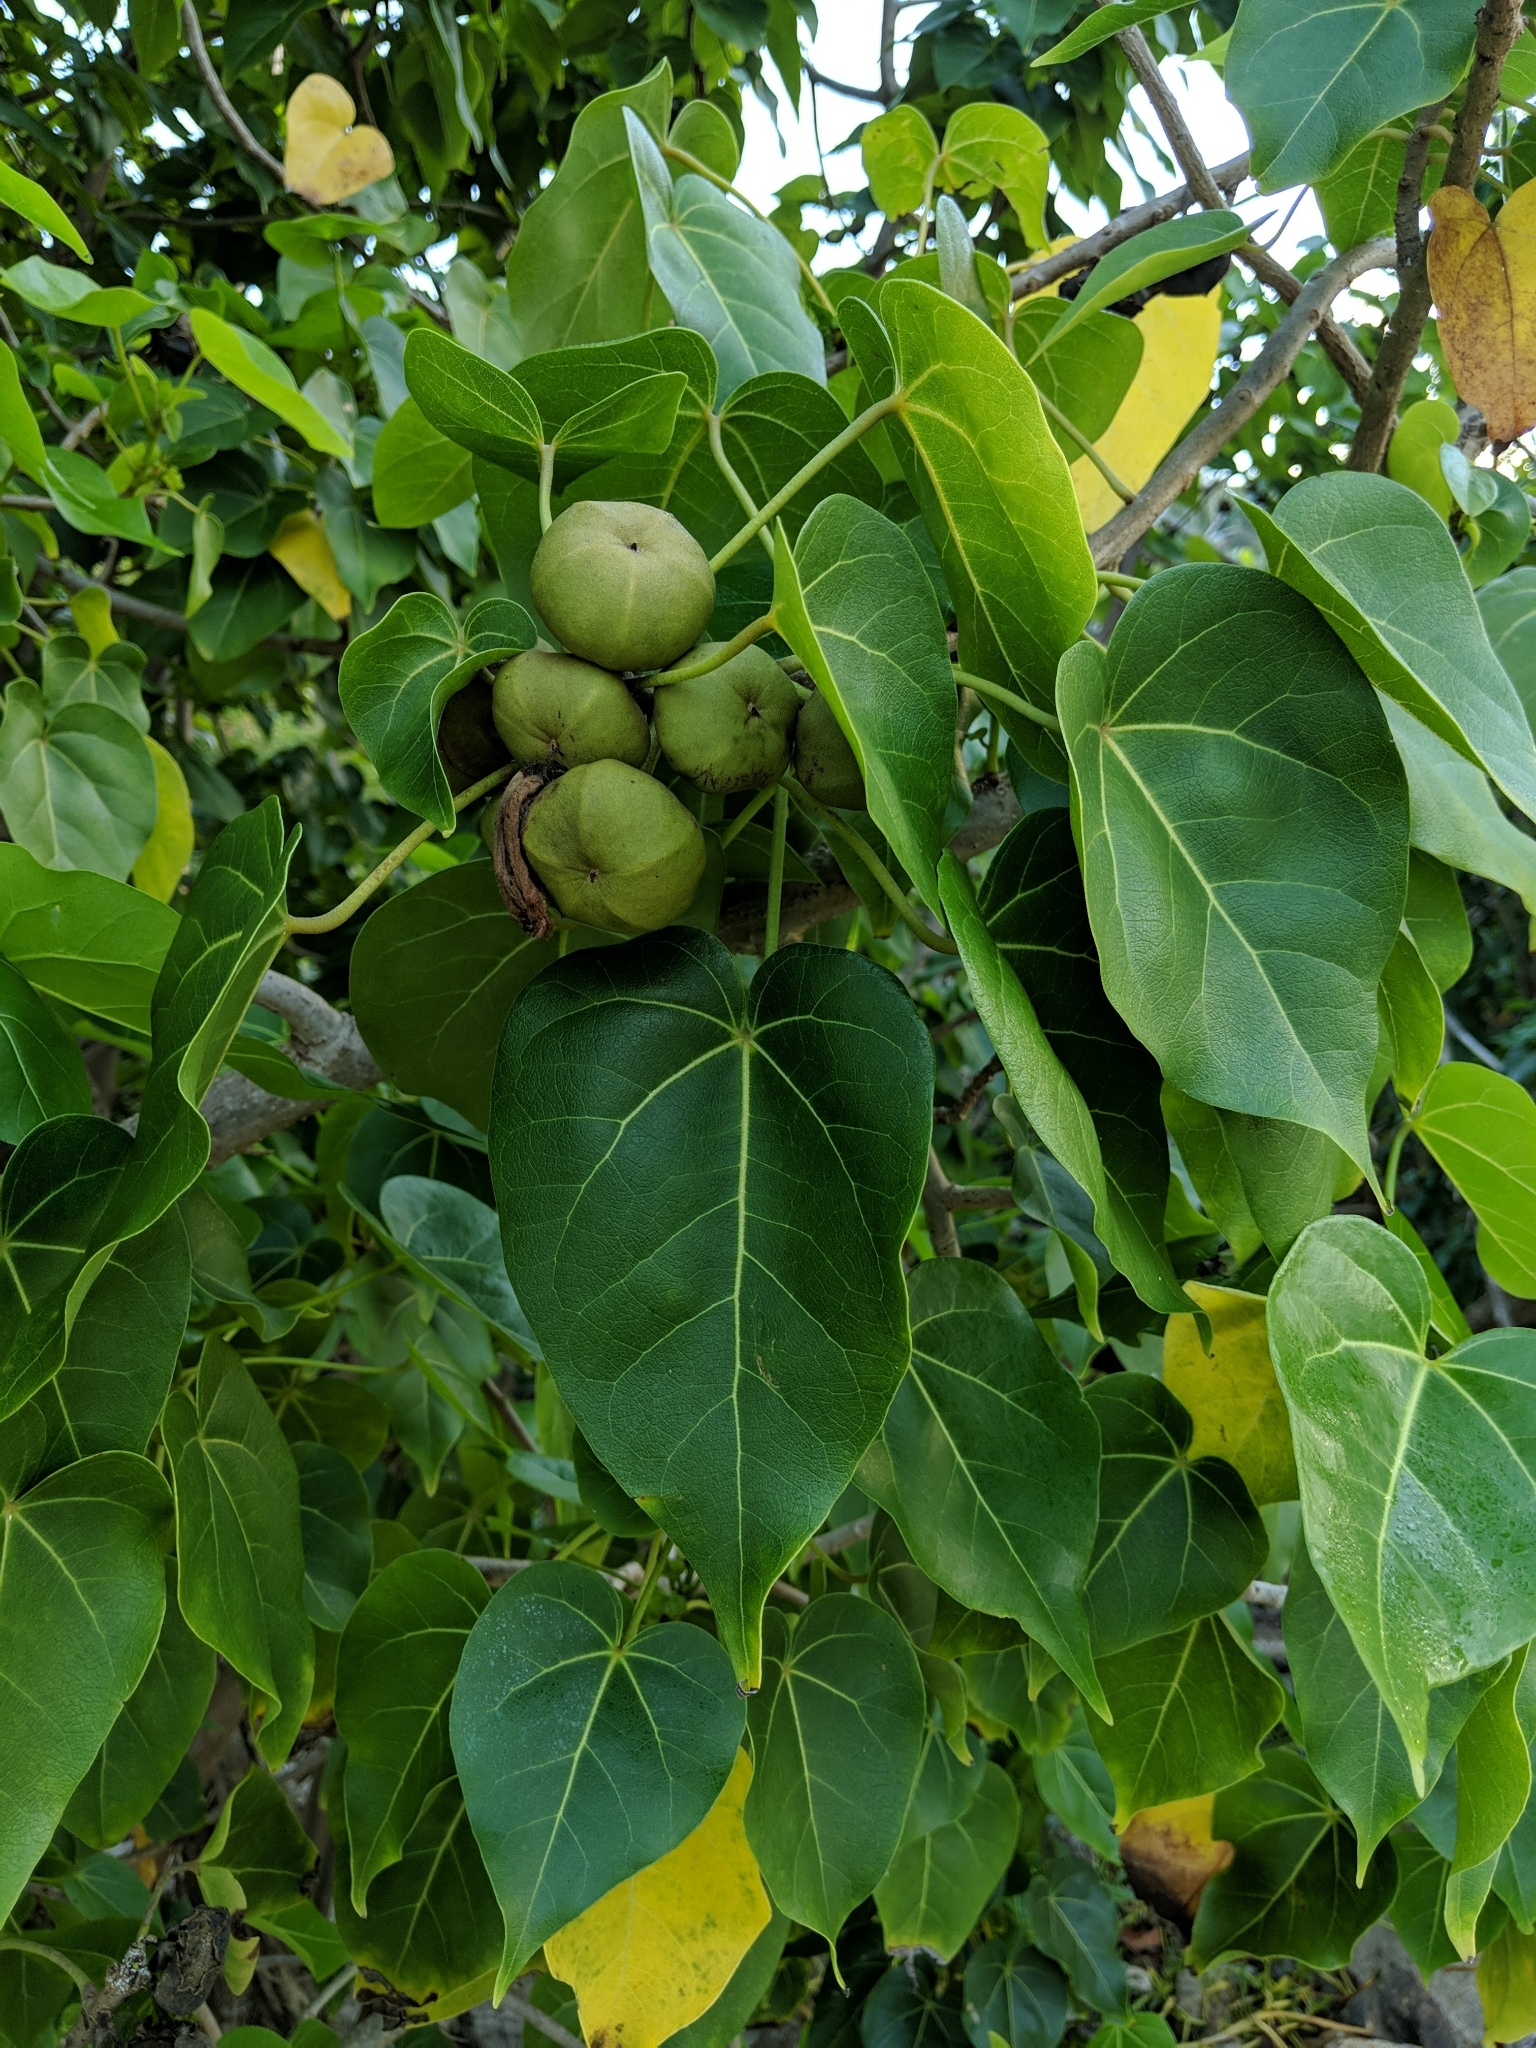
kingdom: Plantae
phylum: Tracheophyta
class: Magnoliopsida
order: Malvales
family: Malvaceae
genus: Thespesia
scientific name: Thespesia populnea
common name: Seaside mahoe
